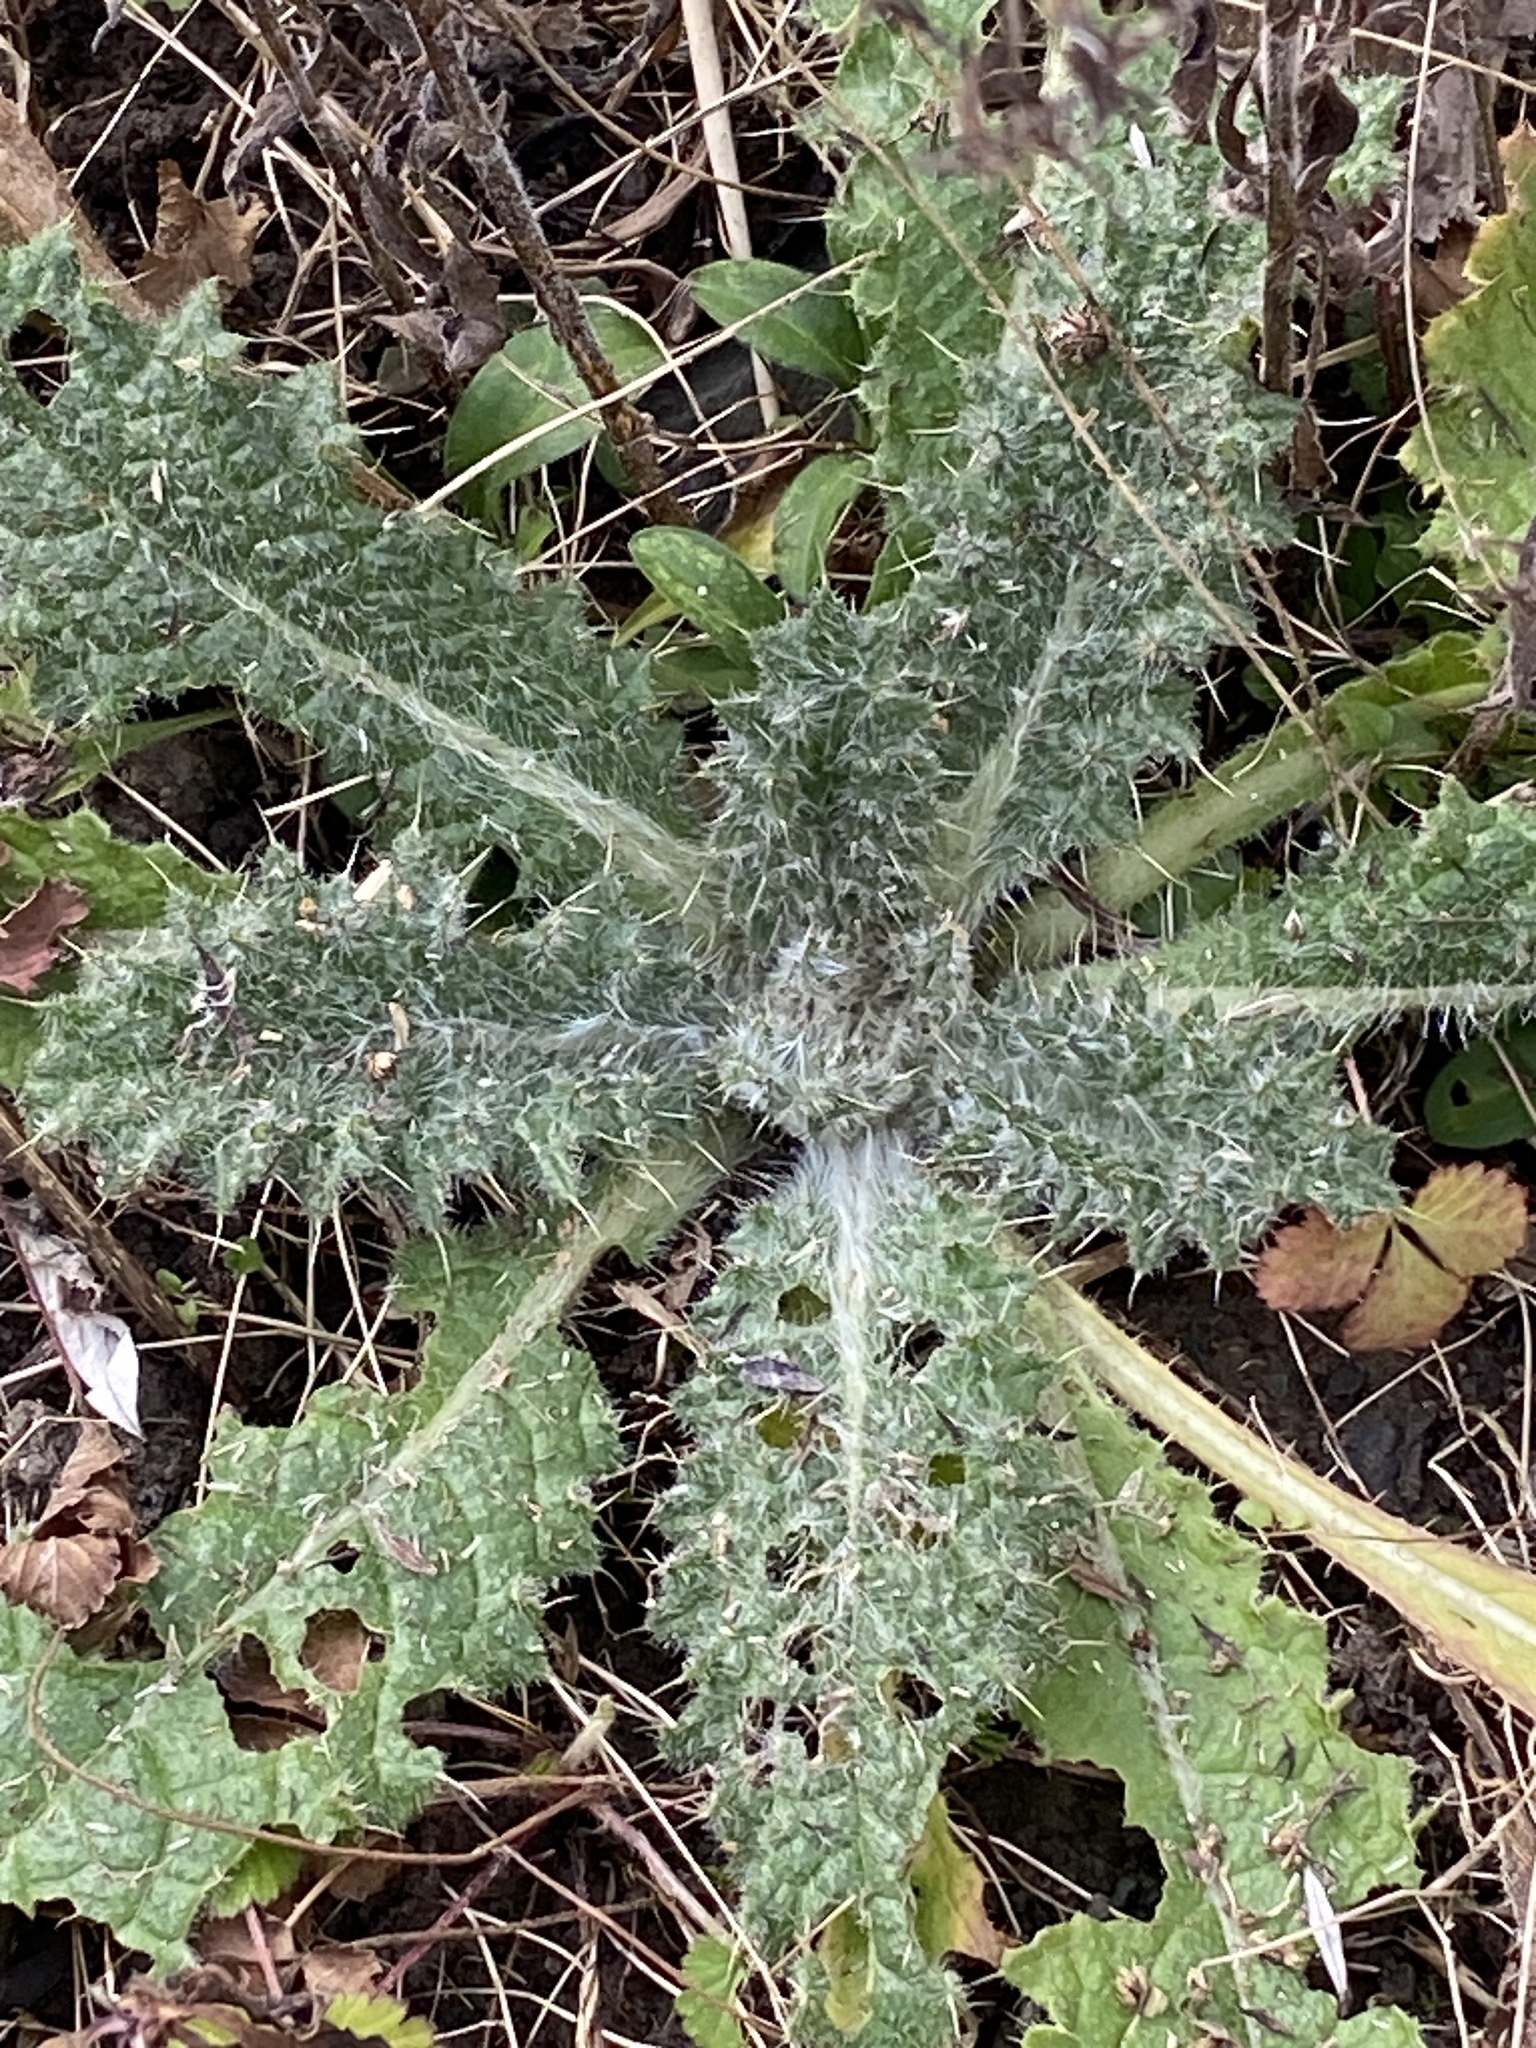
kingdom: Plantae
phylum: Tracheophyta
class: Magnoliopsida
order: Asterales
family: Asteraceae
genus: Cirsium
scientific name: Cirsium vulgare
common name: Bull thistle
